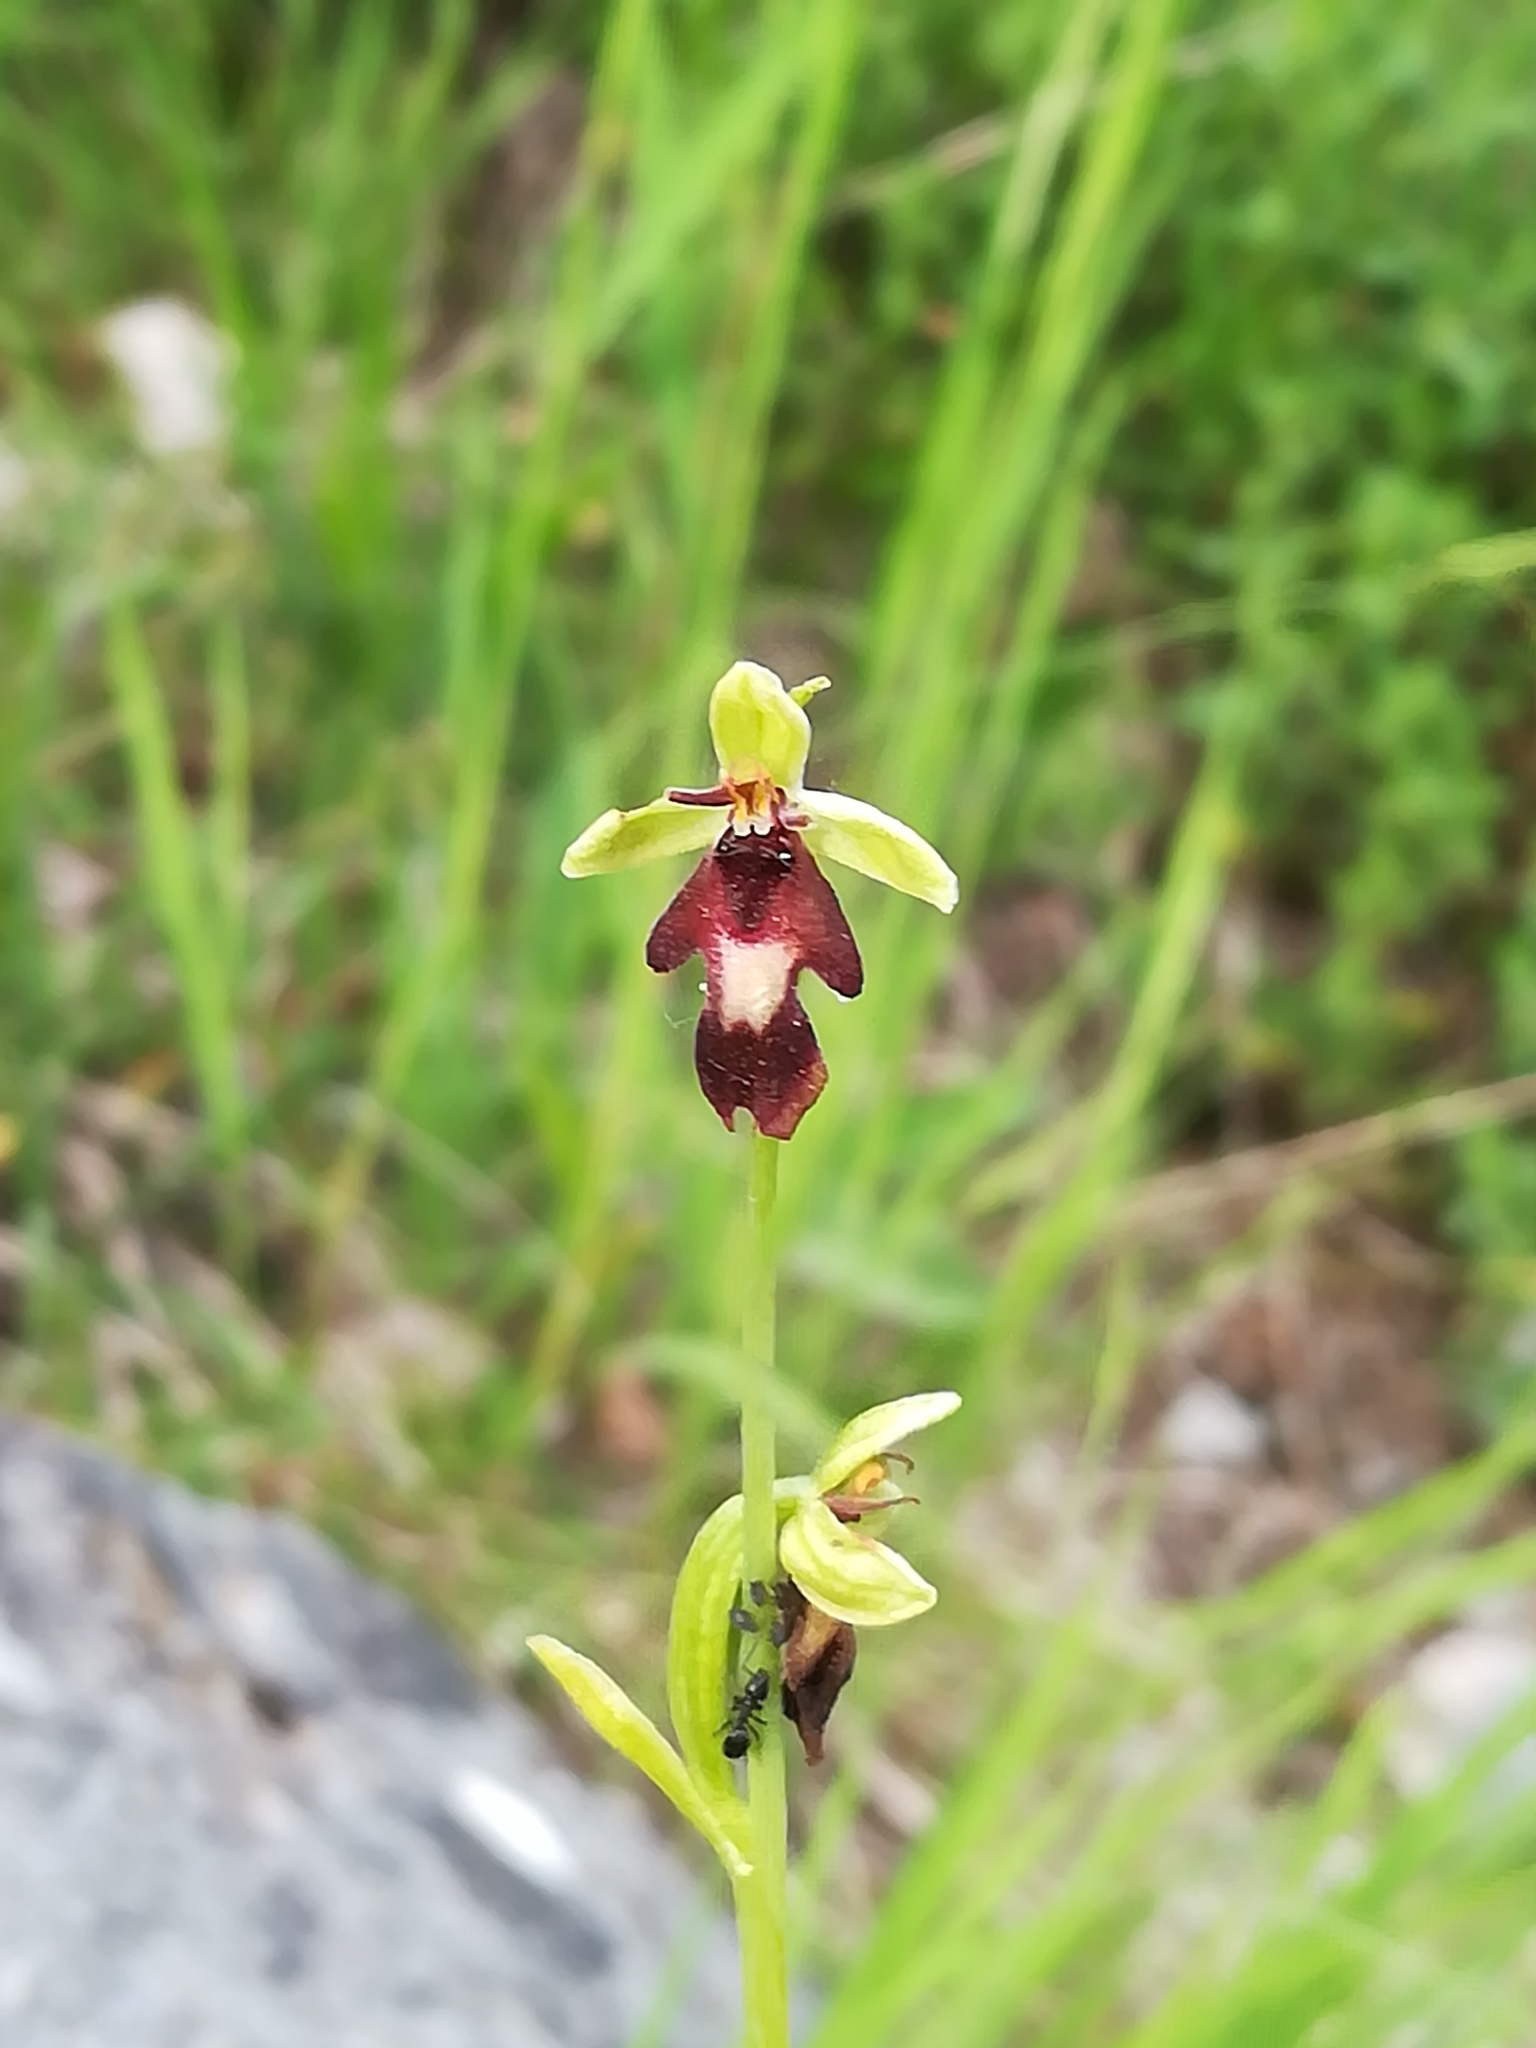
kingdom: Plantae
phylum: Tracheophyta
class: Liliopsida
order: Asparagales
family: Orchidaceae
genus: Ophrys
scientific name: Ophrys insectifera
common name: Fly orchid
